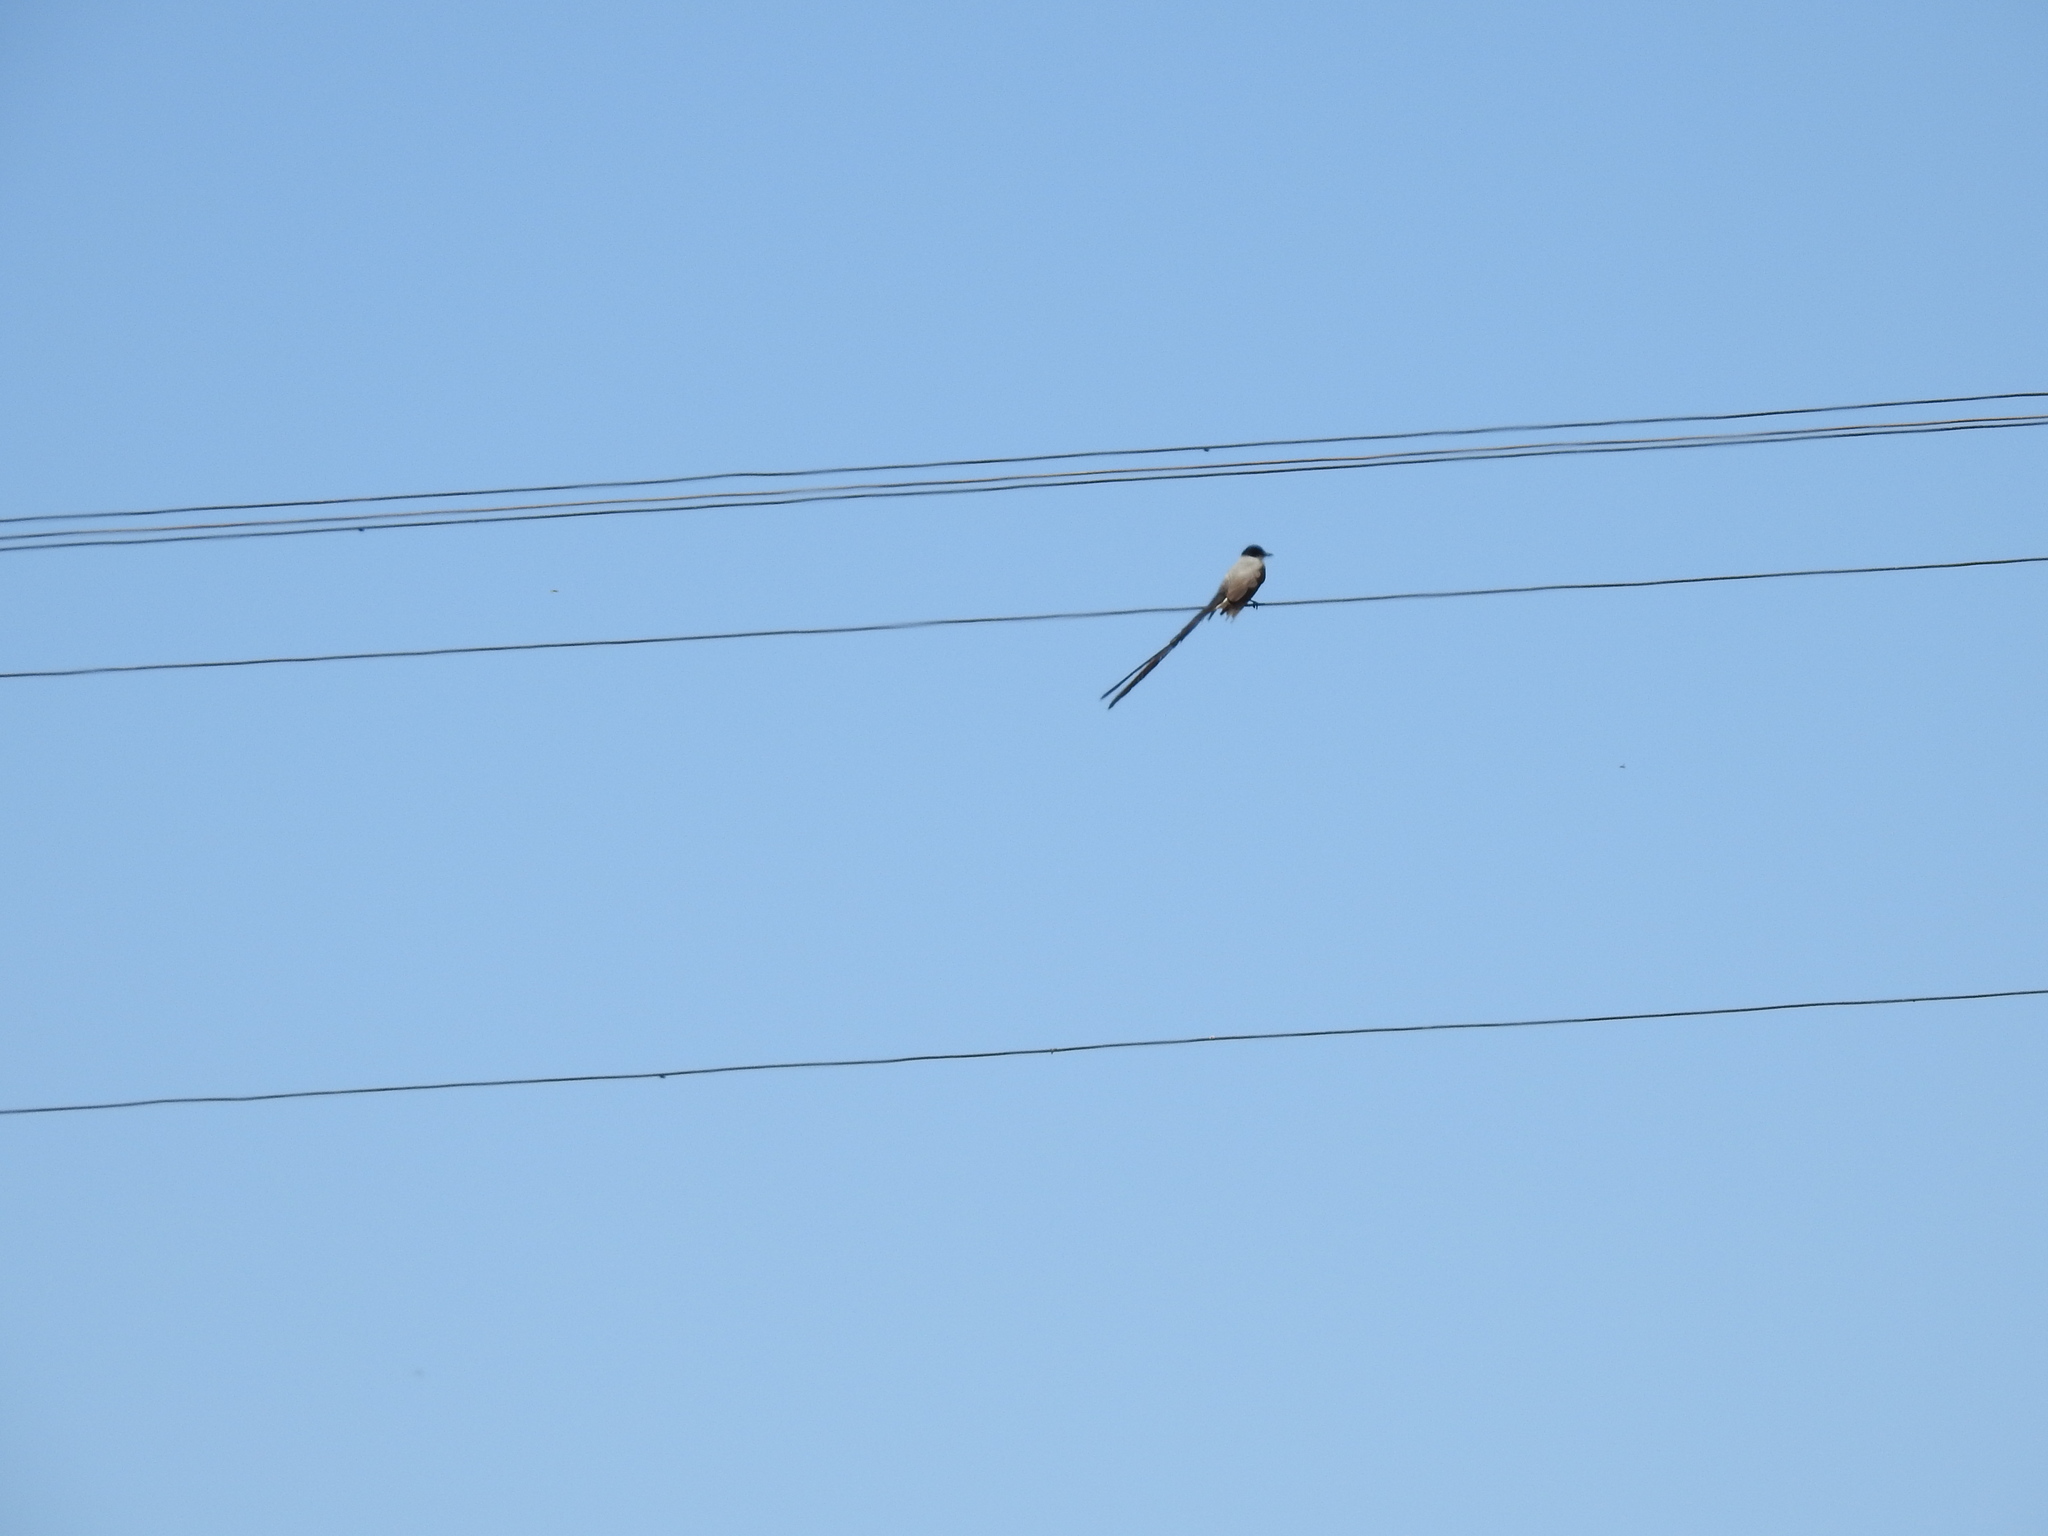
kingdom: Animalia
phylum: Chordata
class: Aves
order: Passeriformes
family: Tyrannidae
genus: Tyrannus
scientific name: Tyrannus savana
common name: Fork-tailed flycatcher
